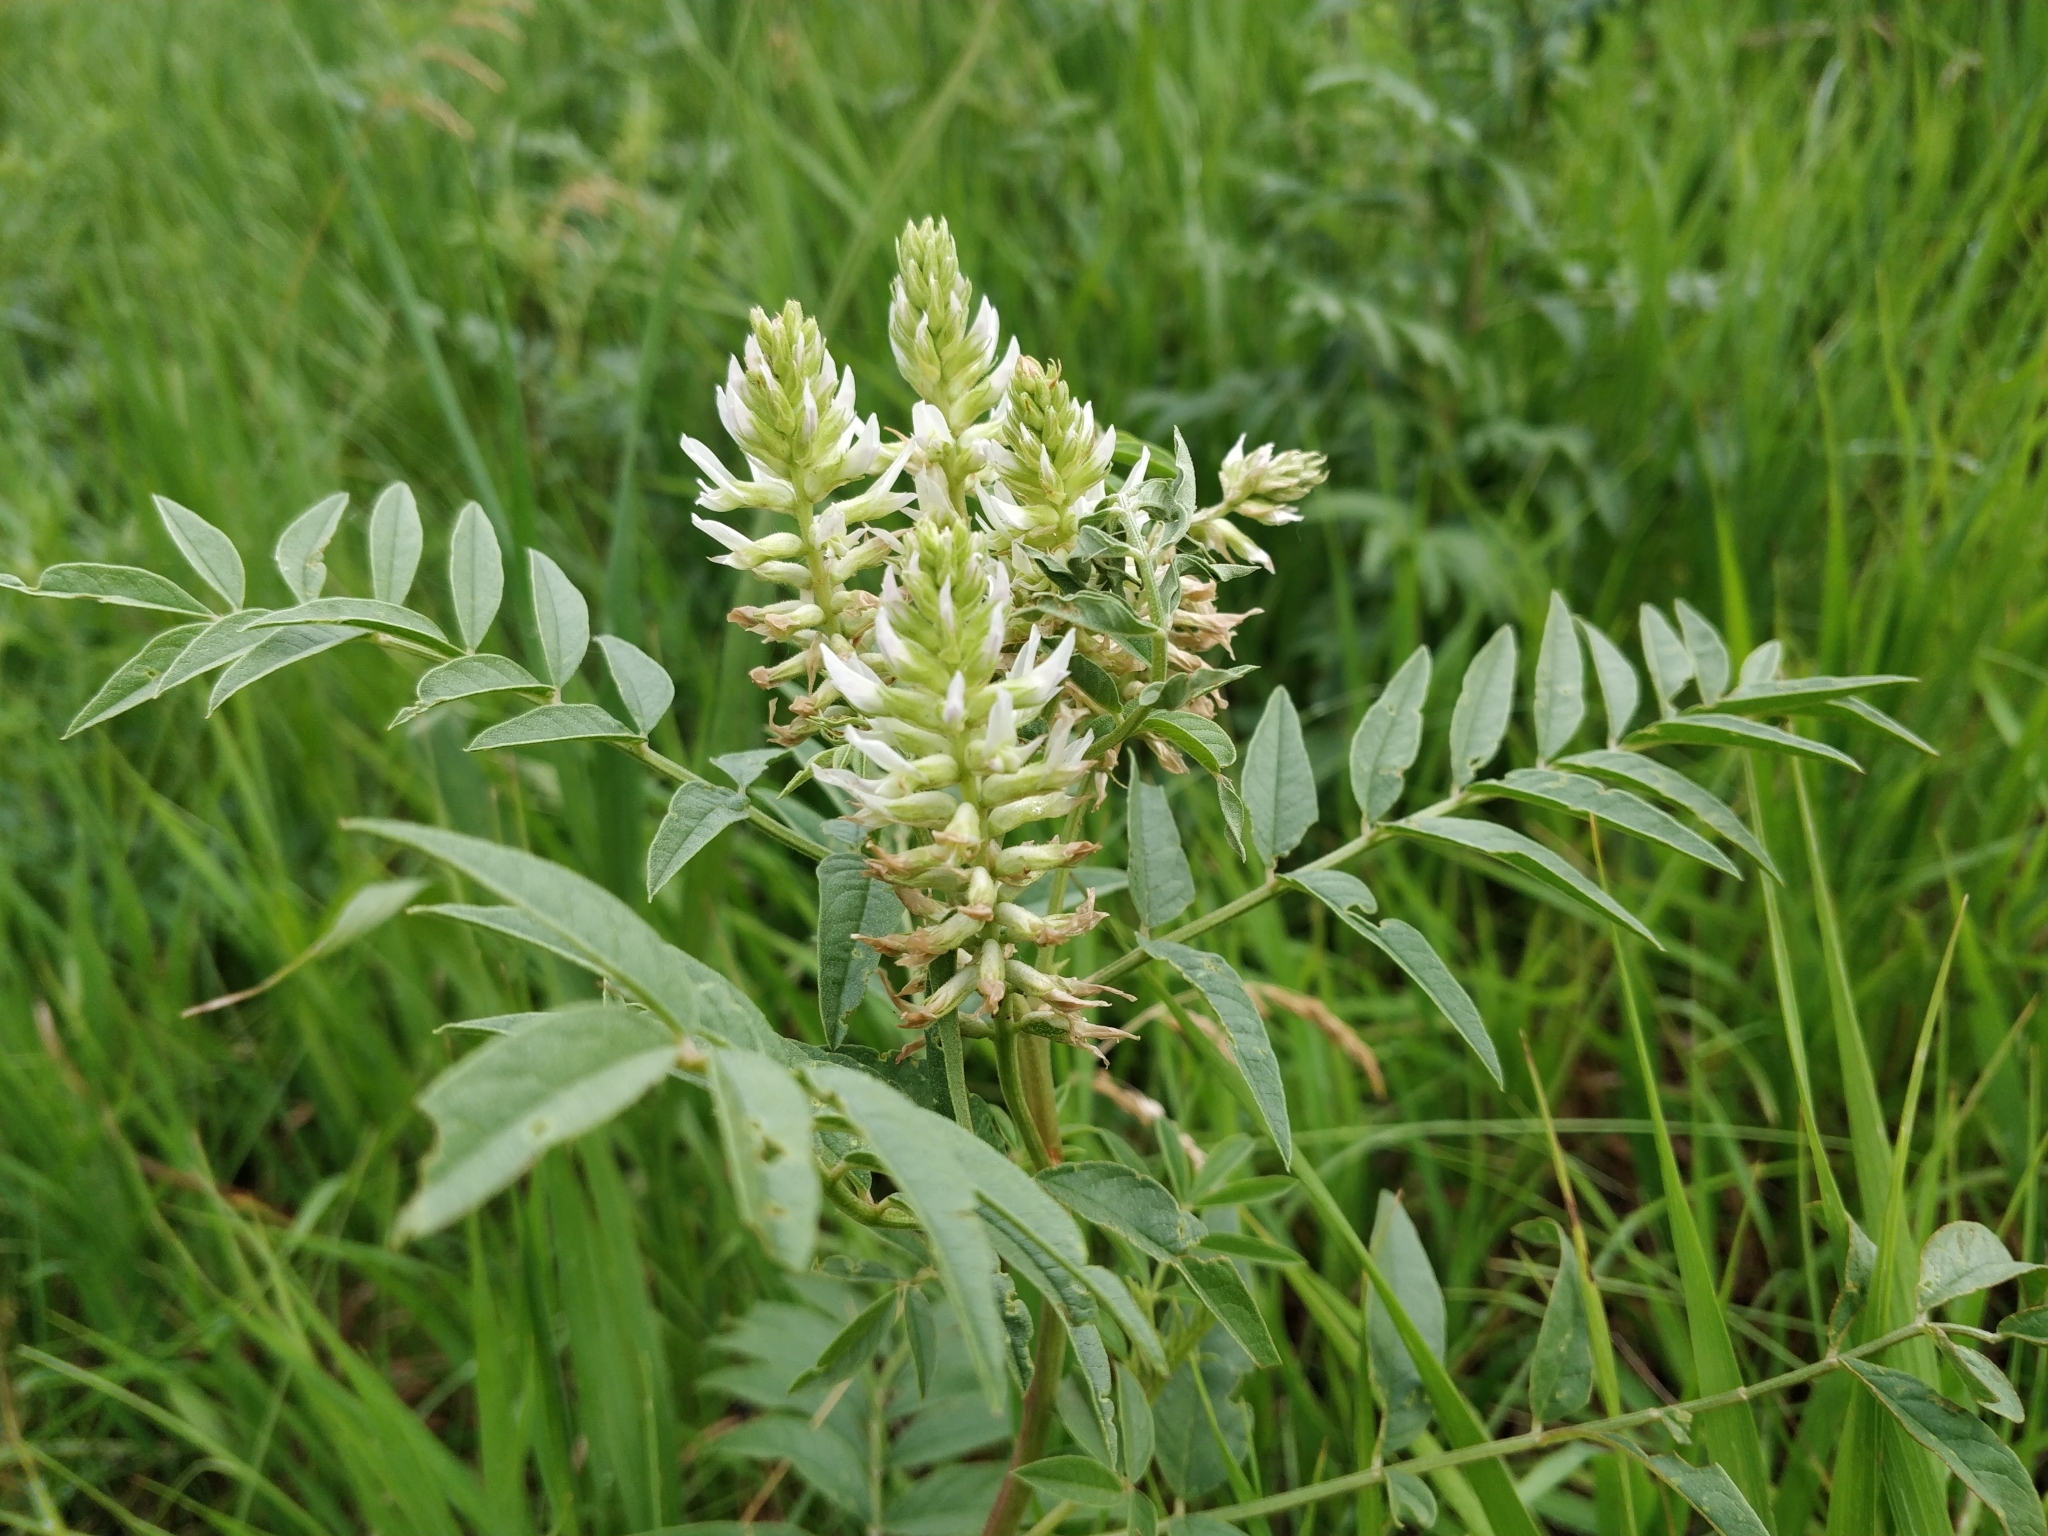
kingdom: Plantae
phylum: Tracheophyta
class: Magnoliopsida
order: Fabales
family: Fabaceae
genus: Glycyrrhiza
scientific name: Glycyrrhiza lepidota
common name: American liquorice
